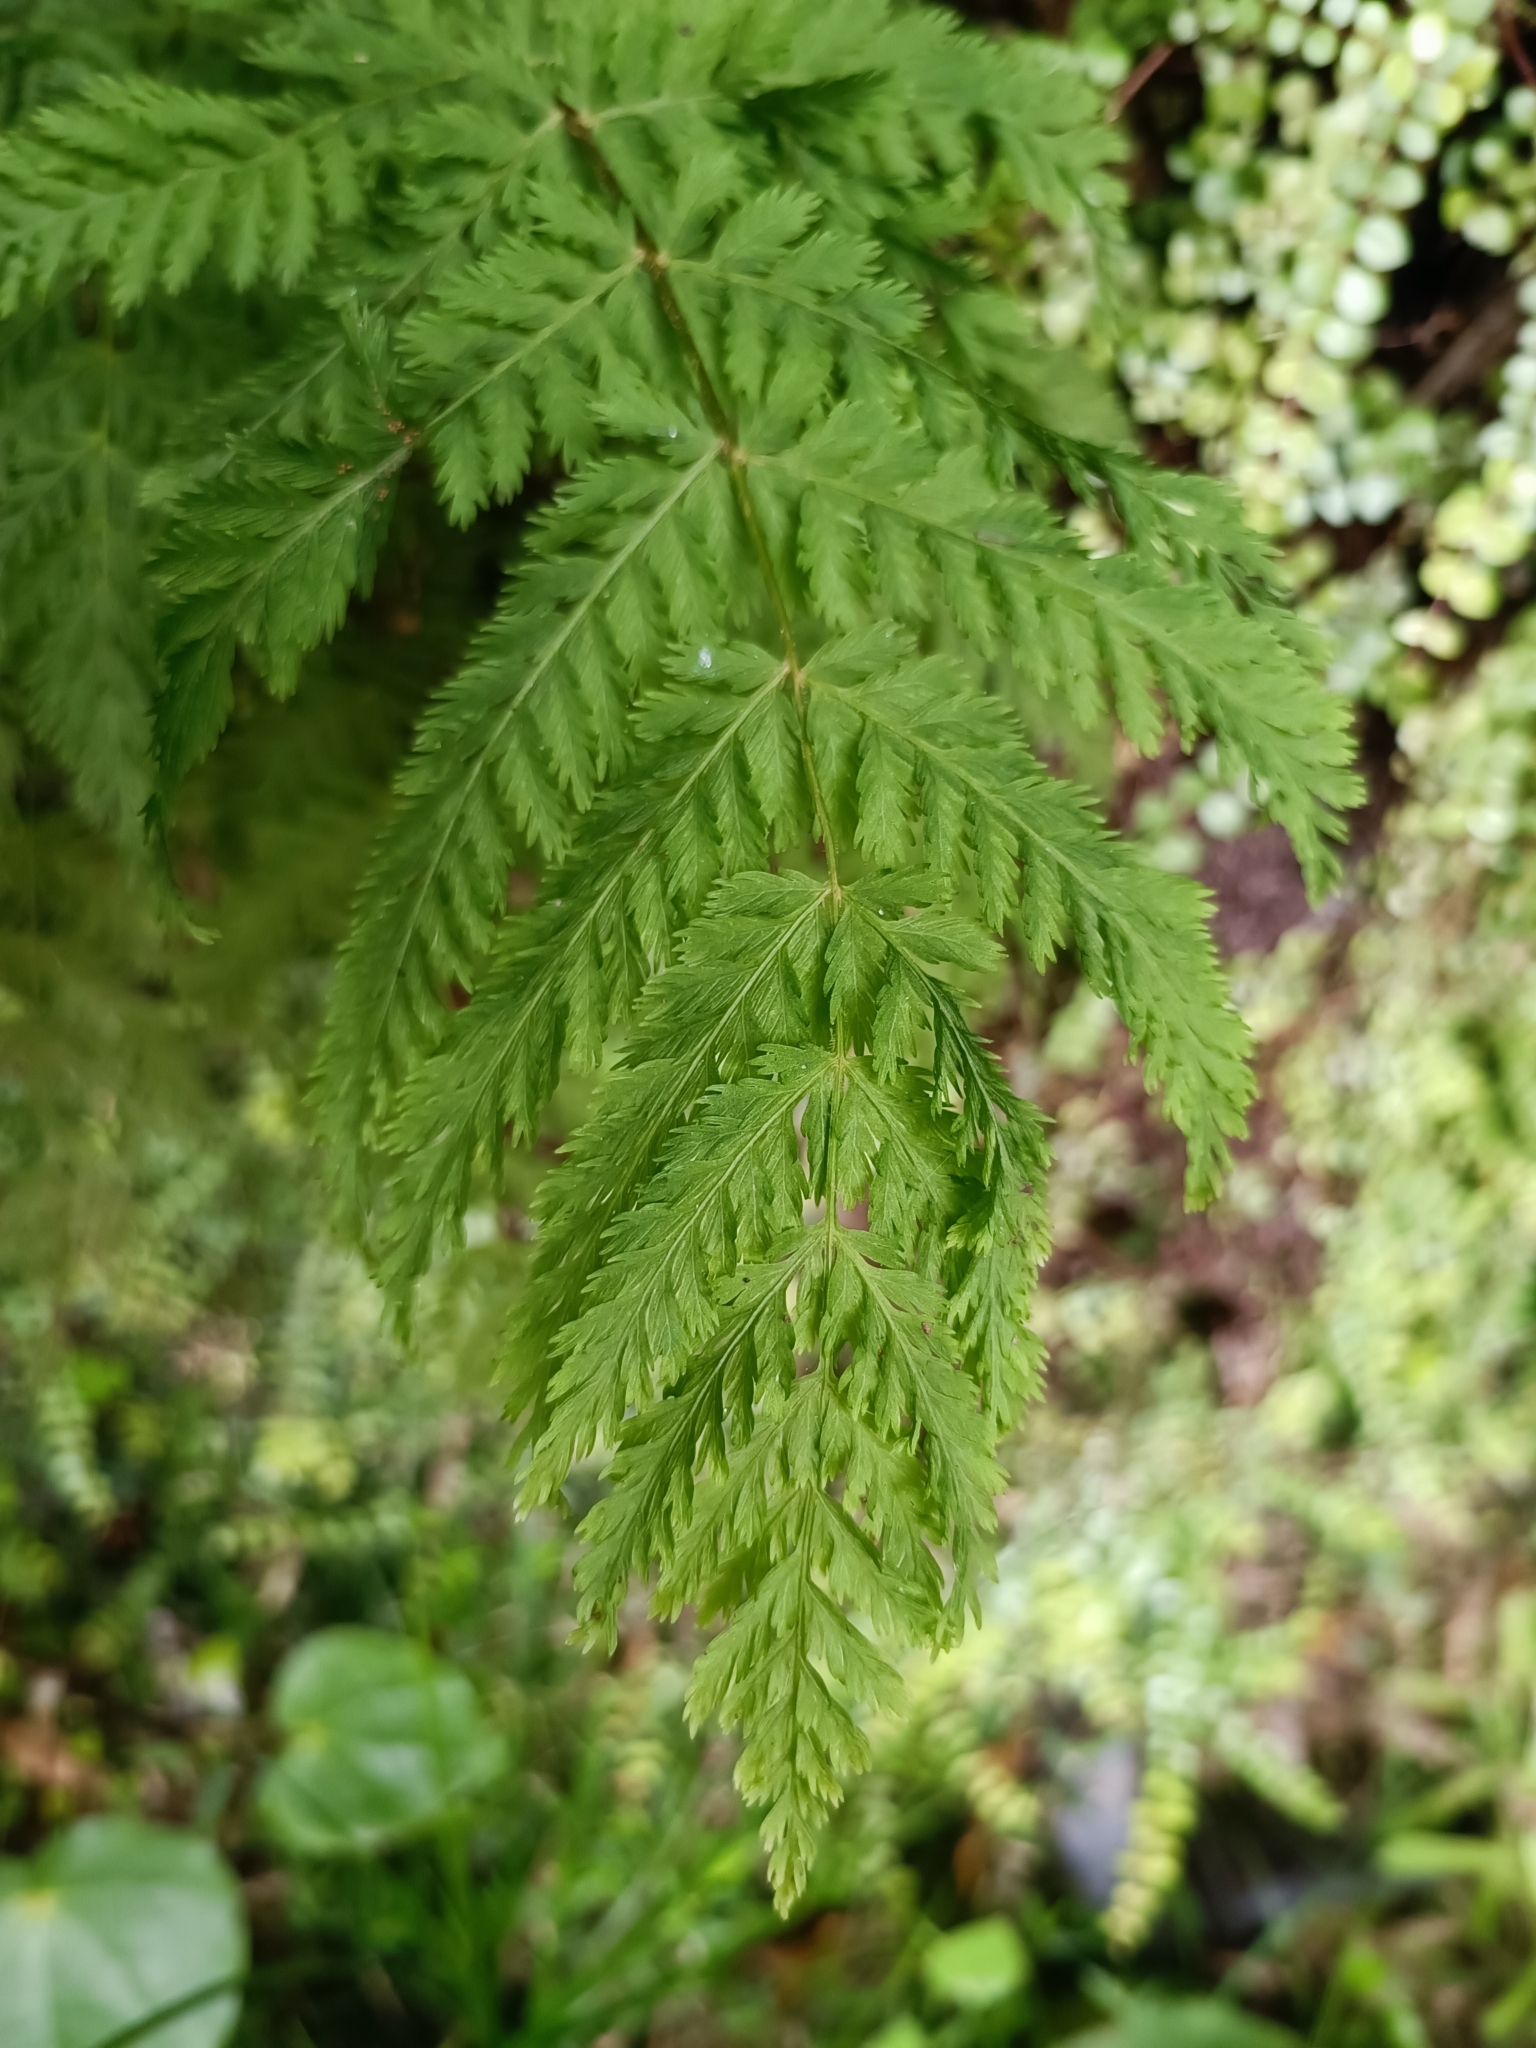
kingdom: Plantae
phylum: Tracheophyta
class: Polypodiopsida
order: Osmundales
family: Osmundaceae
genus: Leptopteris
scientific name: Leptopteris hymenophylloides
